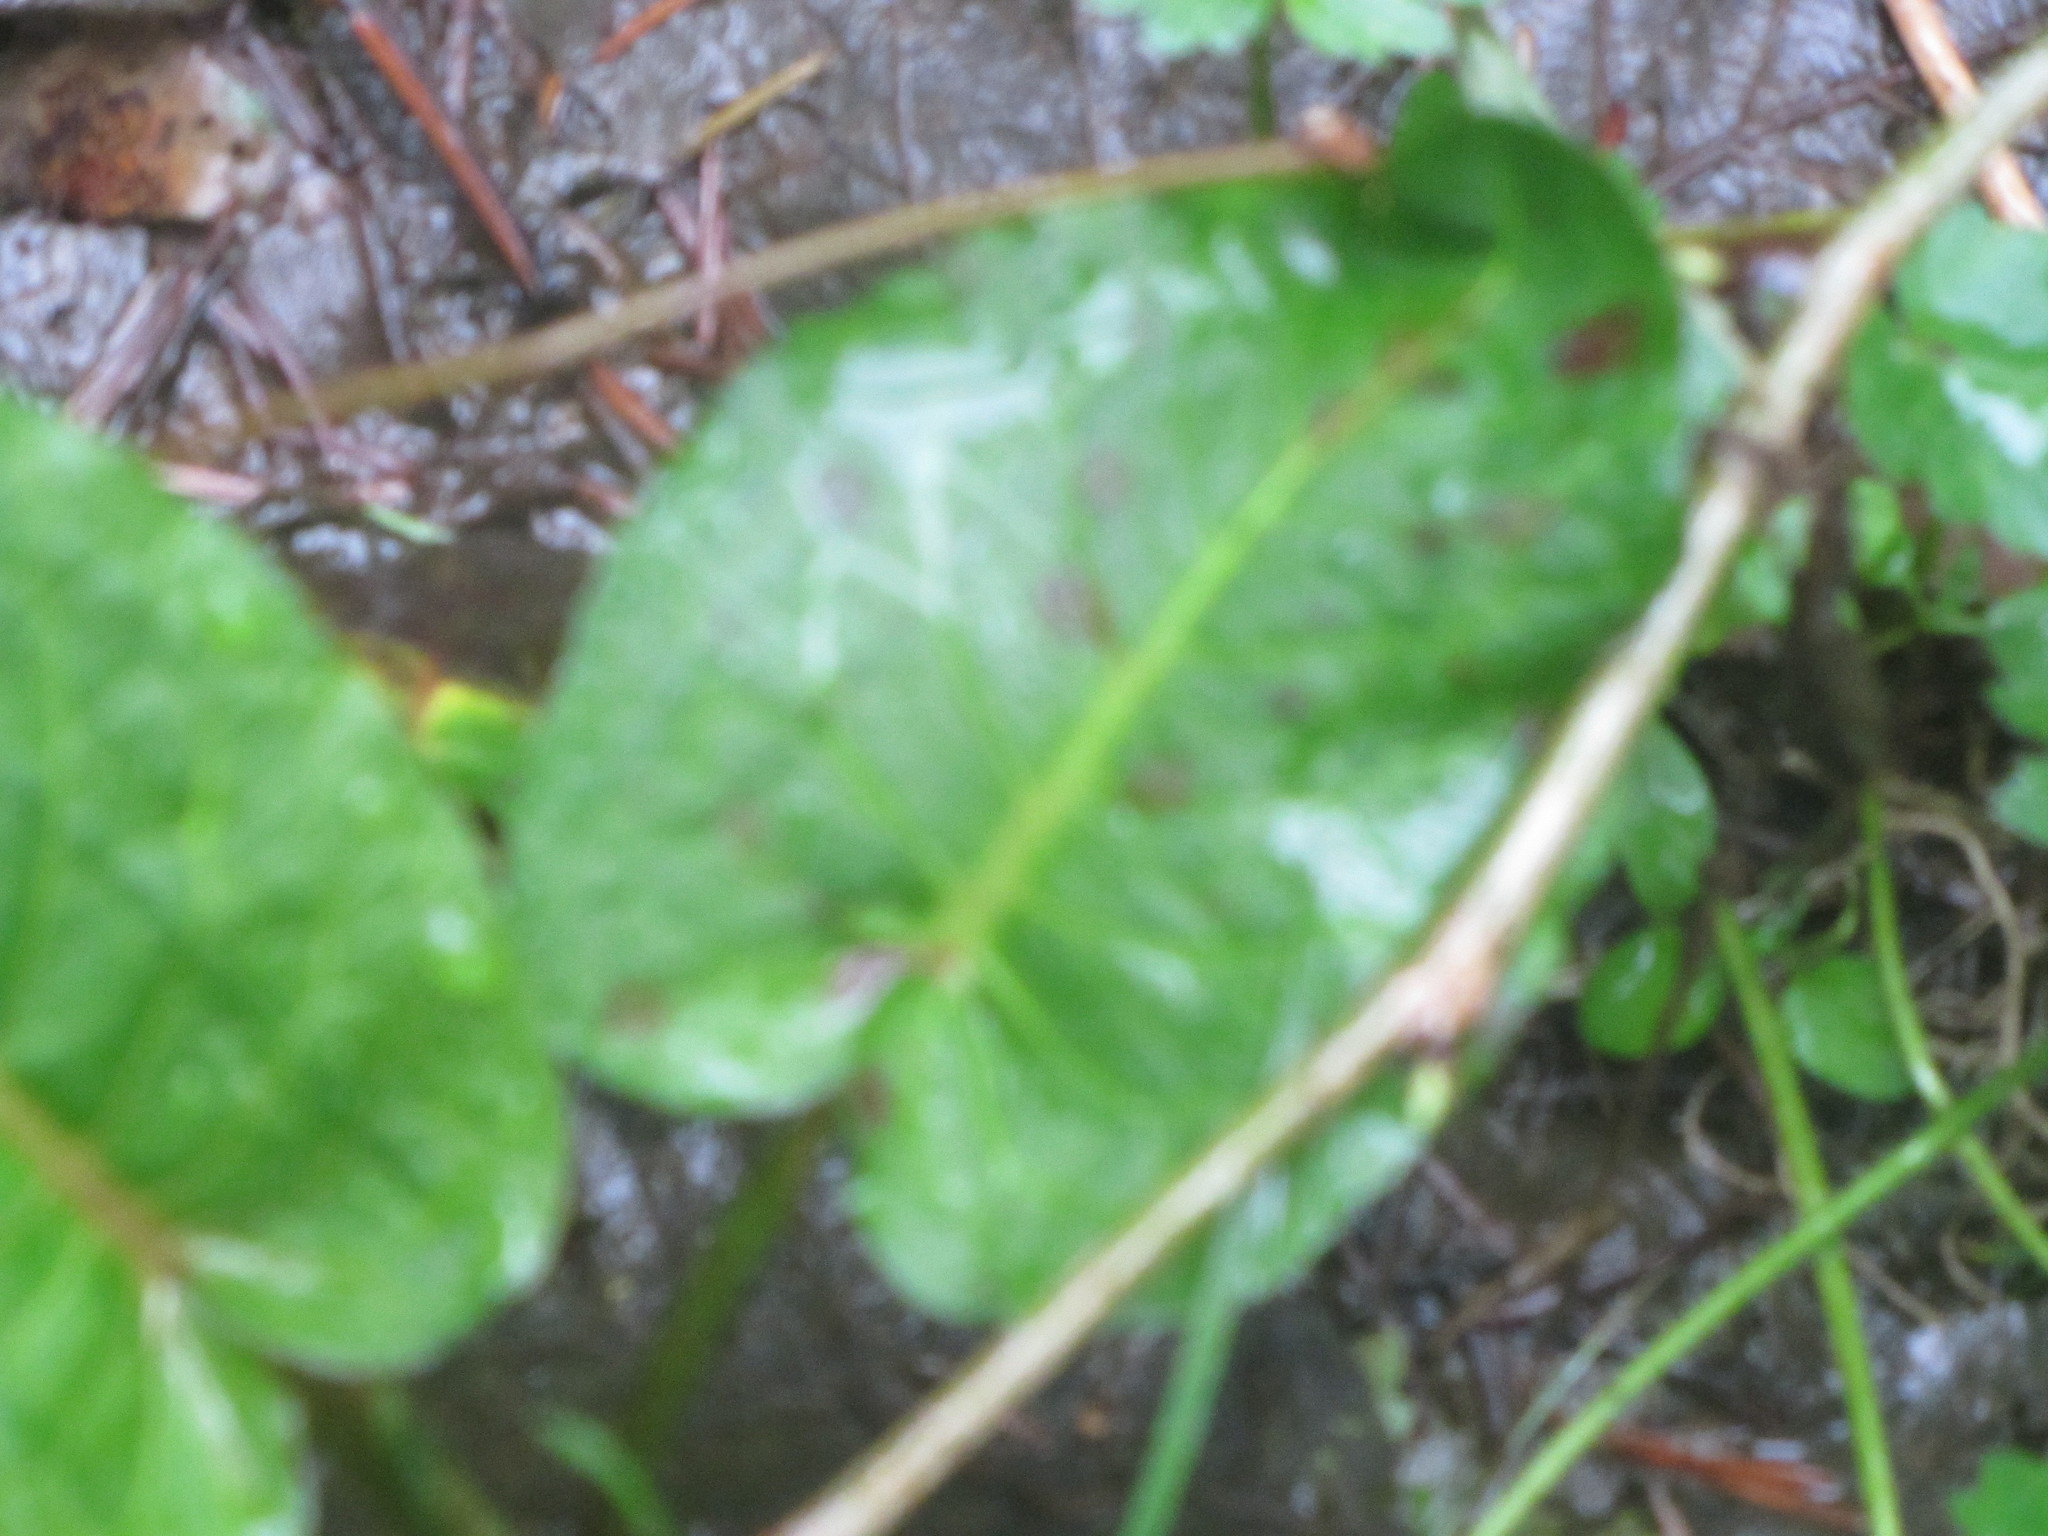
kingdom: Plantae
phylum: Tracheophyta
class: Magnoliopsida
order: Caryophyllales
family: Polygonaceae
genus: Rumex
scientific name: Rumex obtusifolius
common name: Bitter dock
